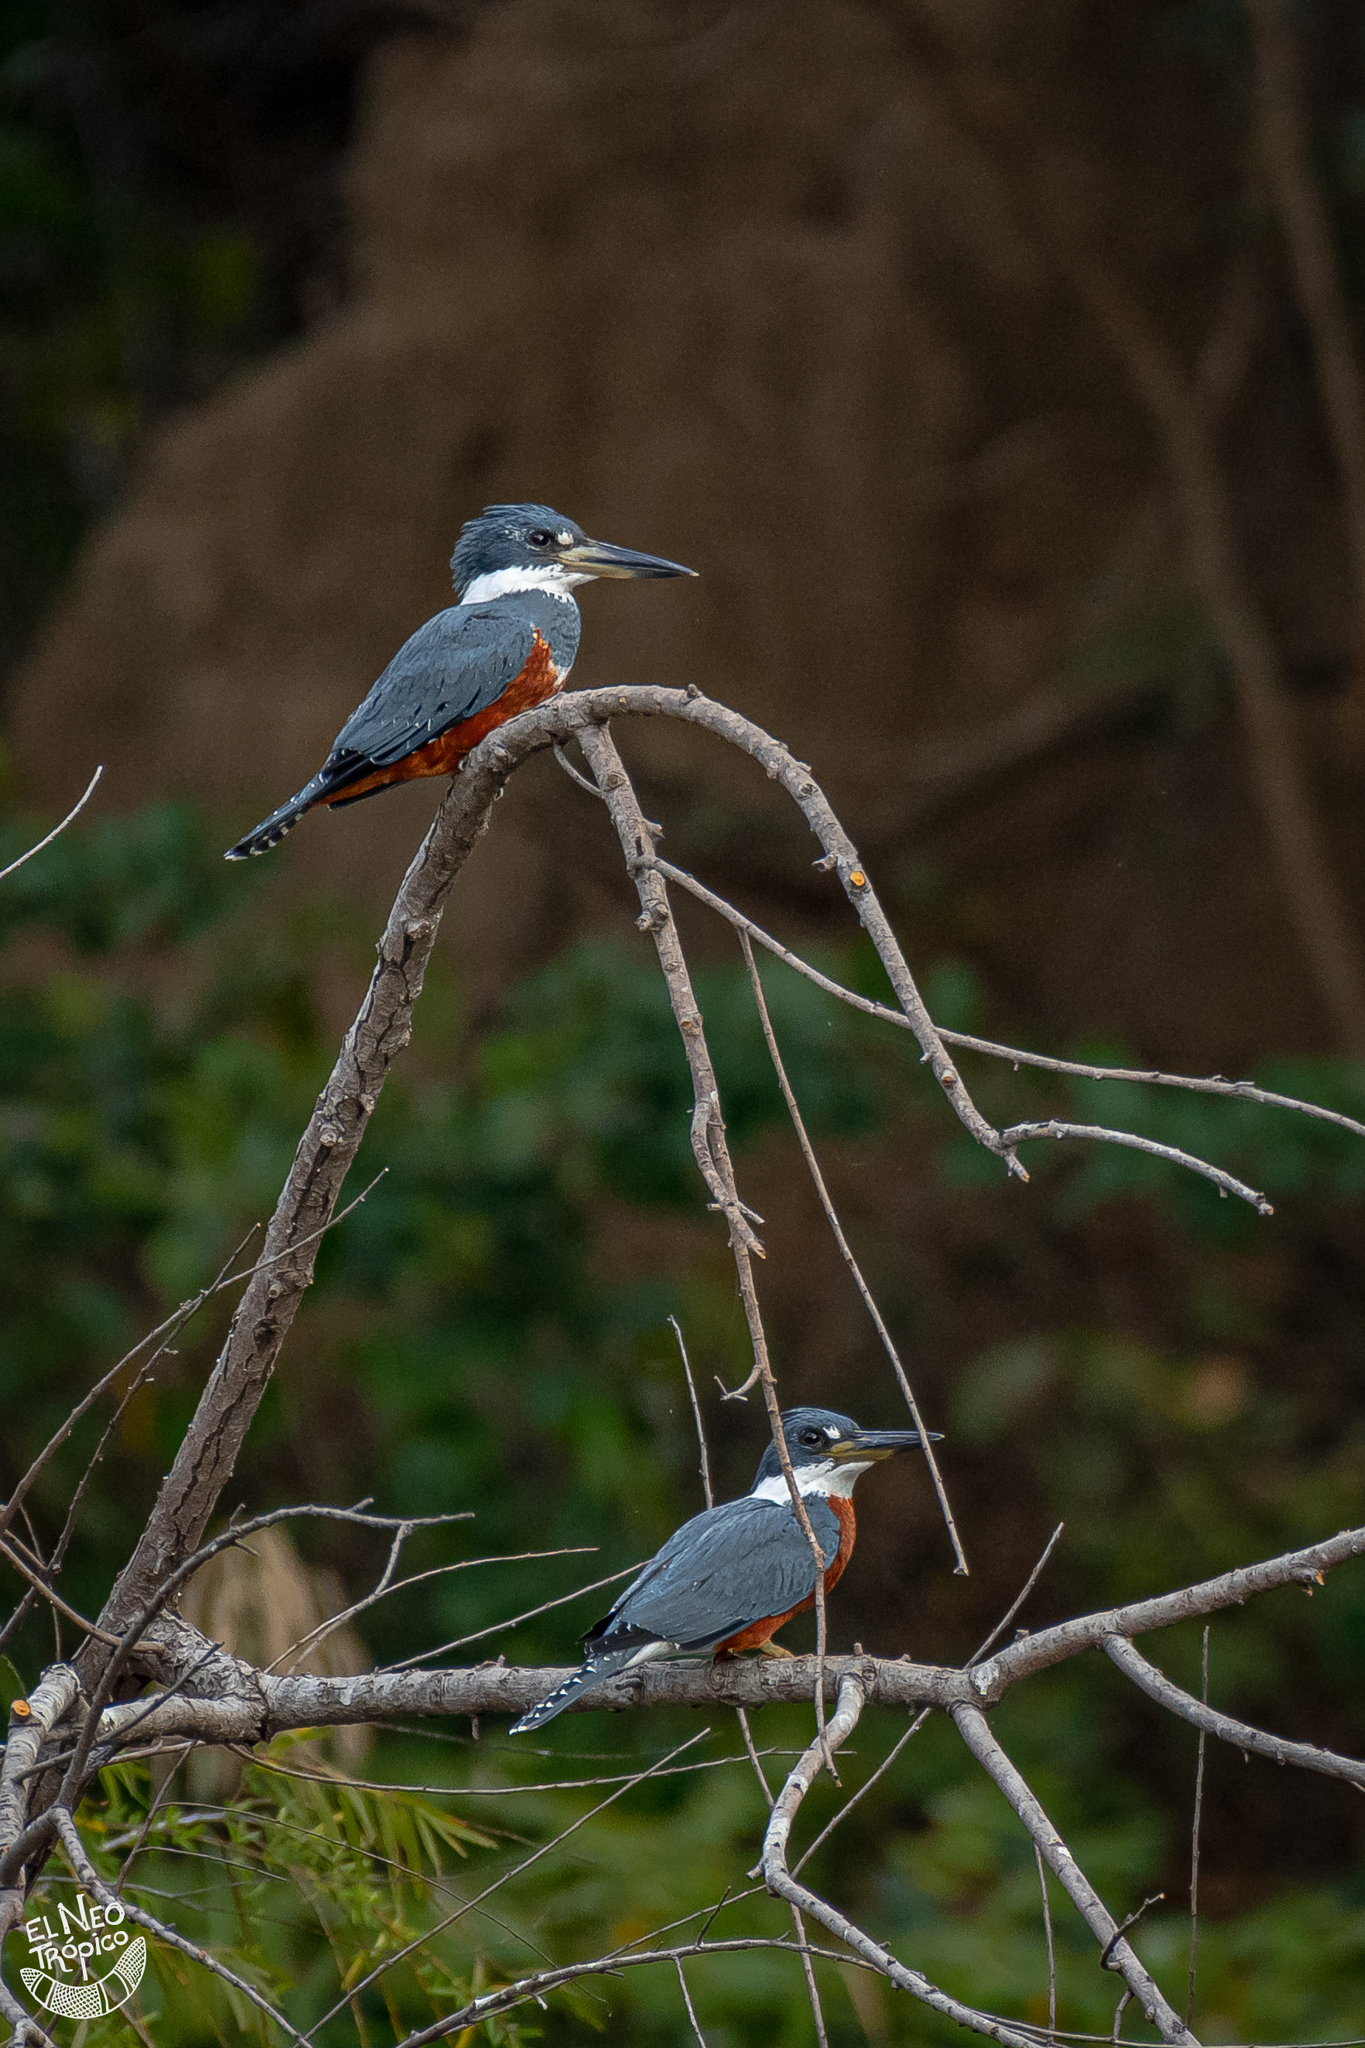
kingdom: Animalia
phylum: Chordata
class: Aves
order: Coraciiformes
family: Alcedinidae
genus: Megaceryle
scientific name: Megaceryle torquata
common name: Ringed kingfisher
